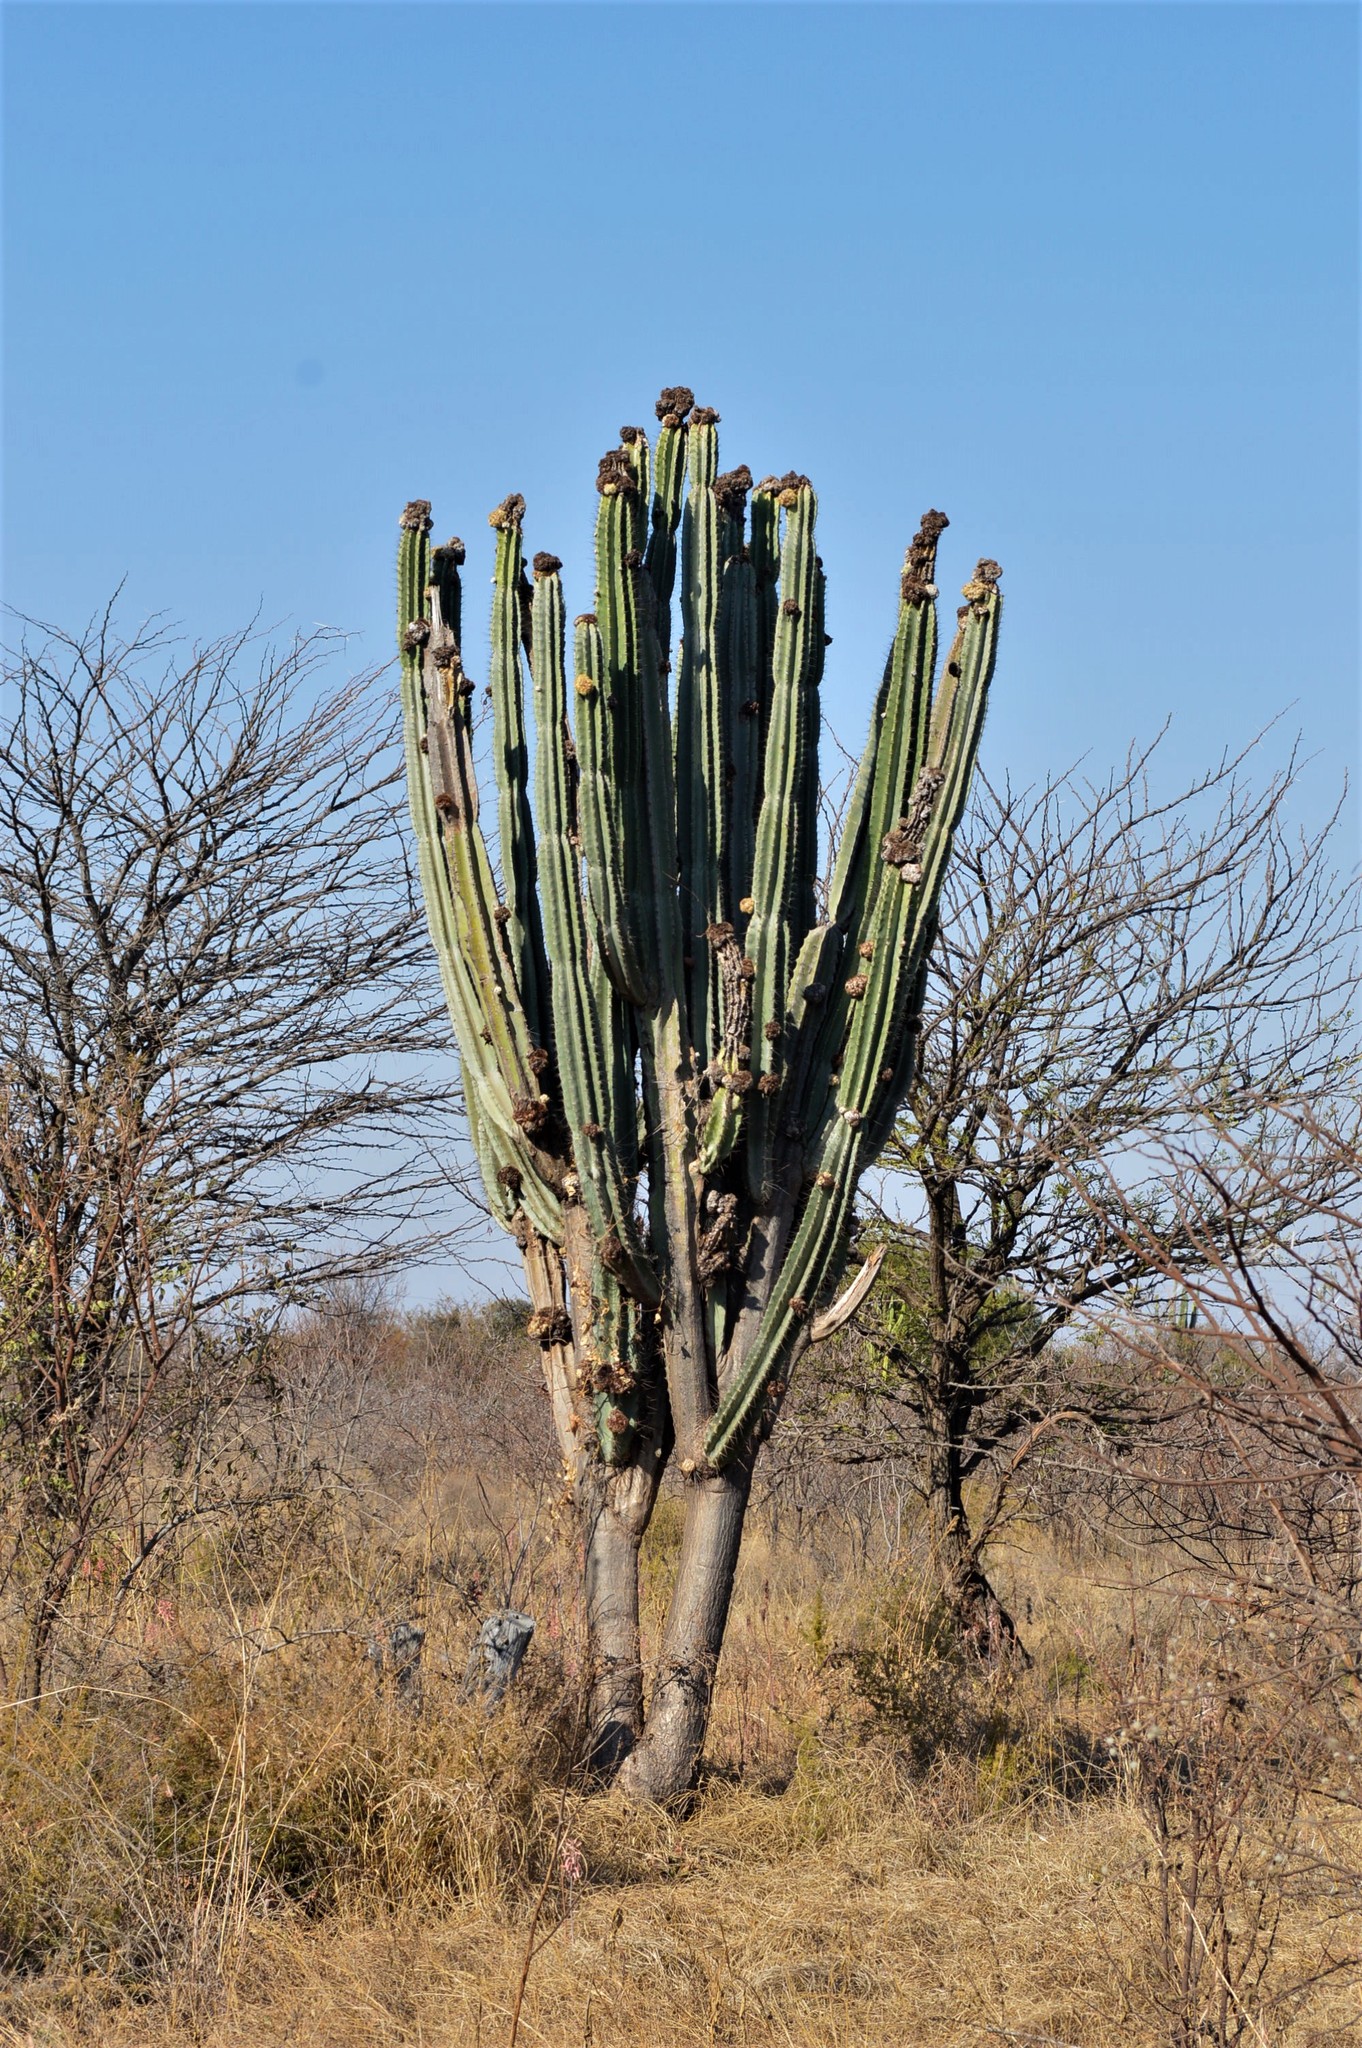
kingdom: Plantae
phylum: Tracheophyta
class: Magnoliopsida
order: Caryophyllales
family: Cactaceae
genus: Cereus
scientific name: Cereus jamacaru
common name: Queen-of-the-night
